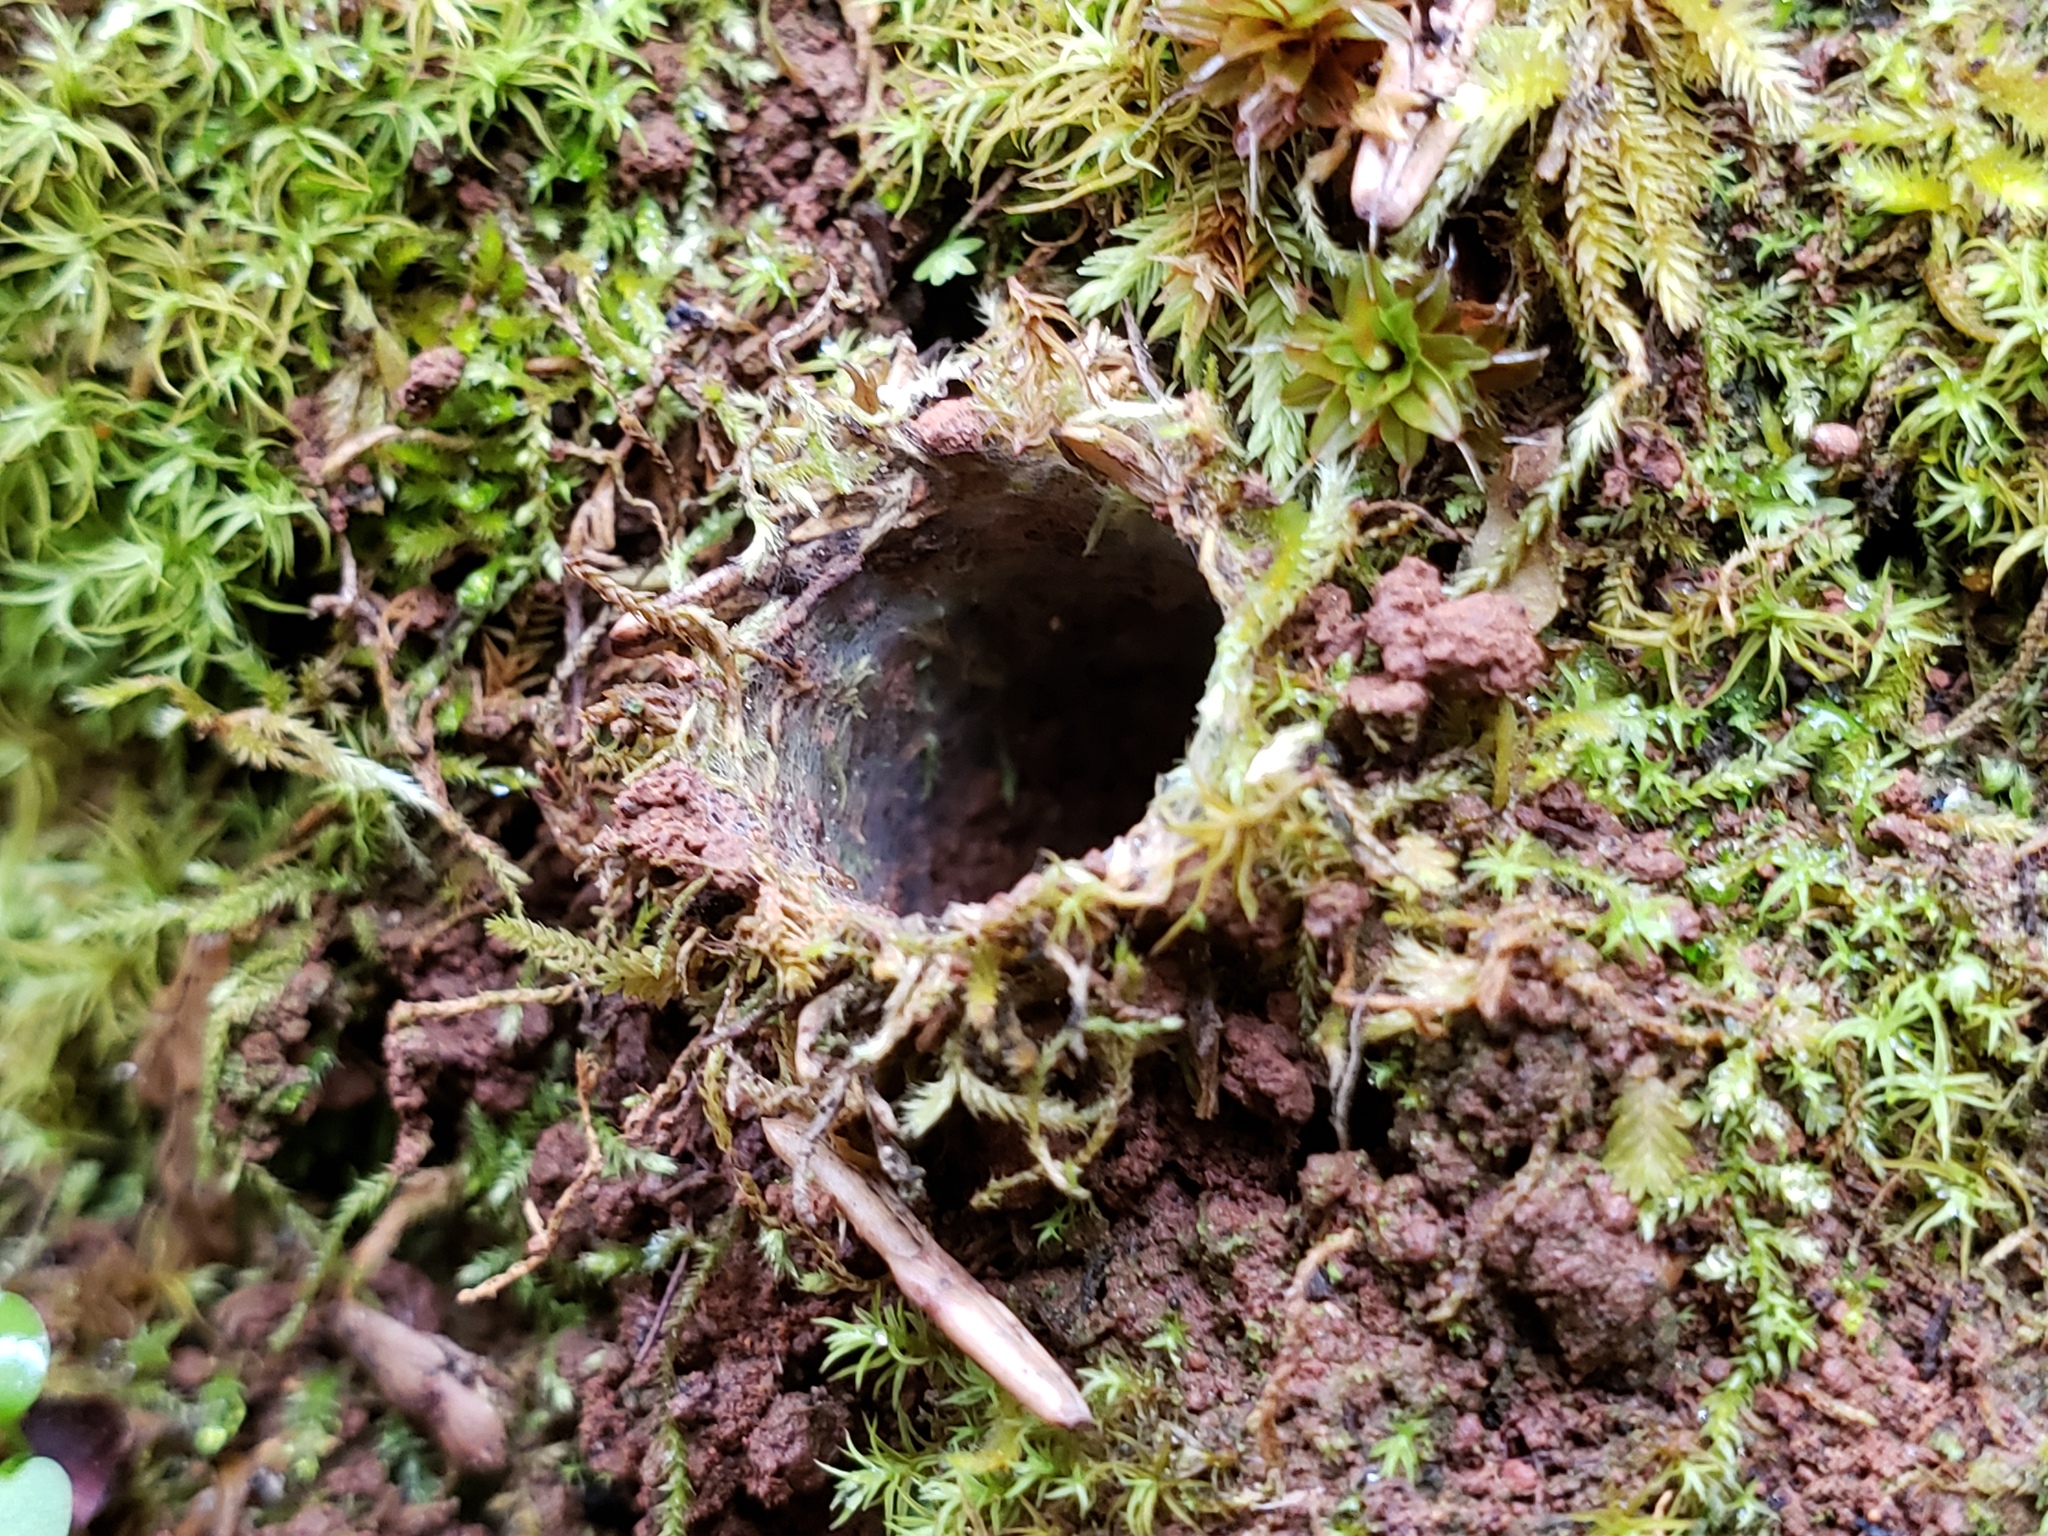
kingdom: Animalia
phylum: Arthropoda
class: Arachnida
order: Araneae
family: Antrodiaetidae
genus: Atypoides
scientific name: Atypoides riversi
